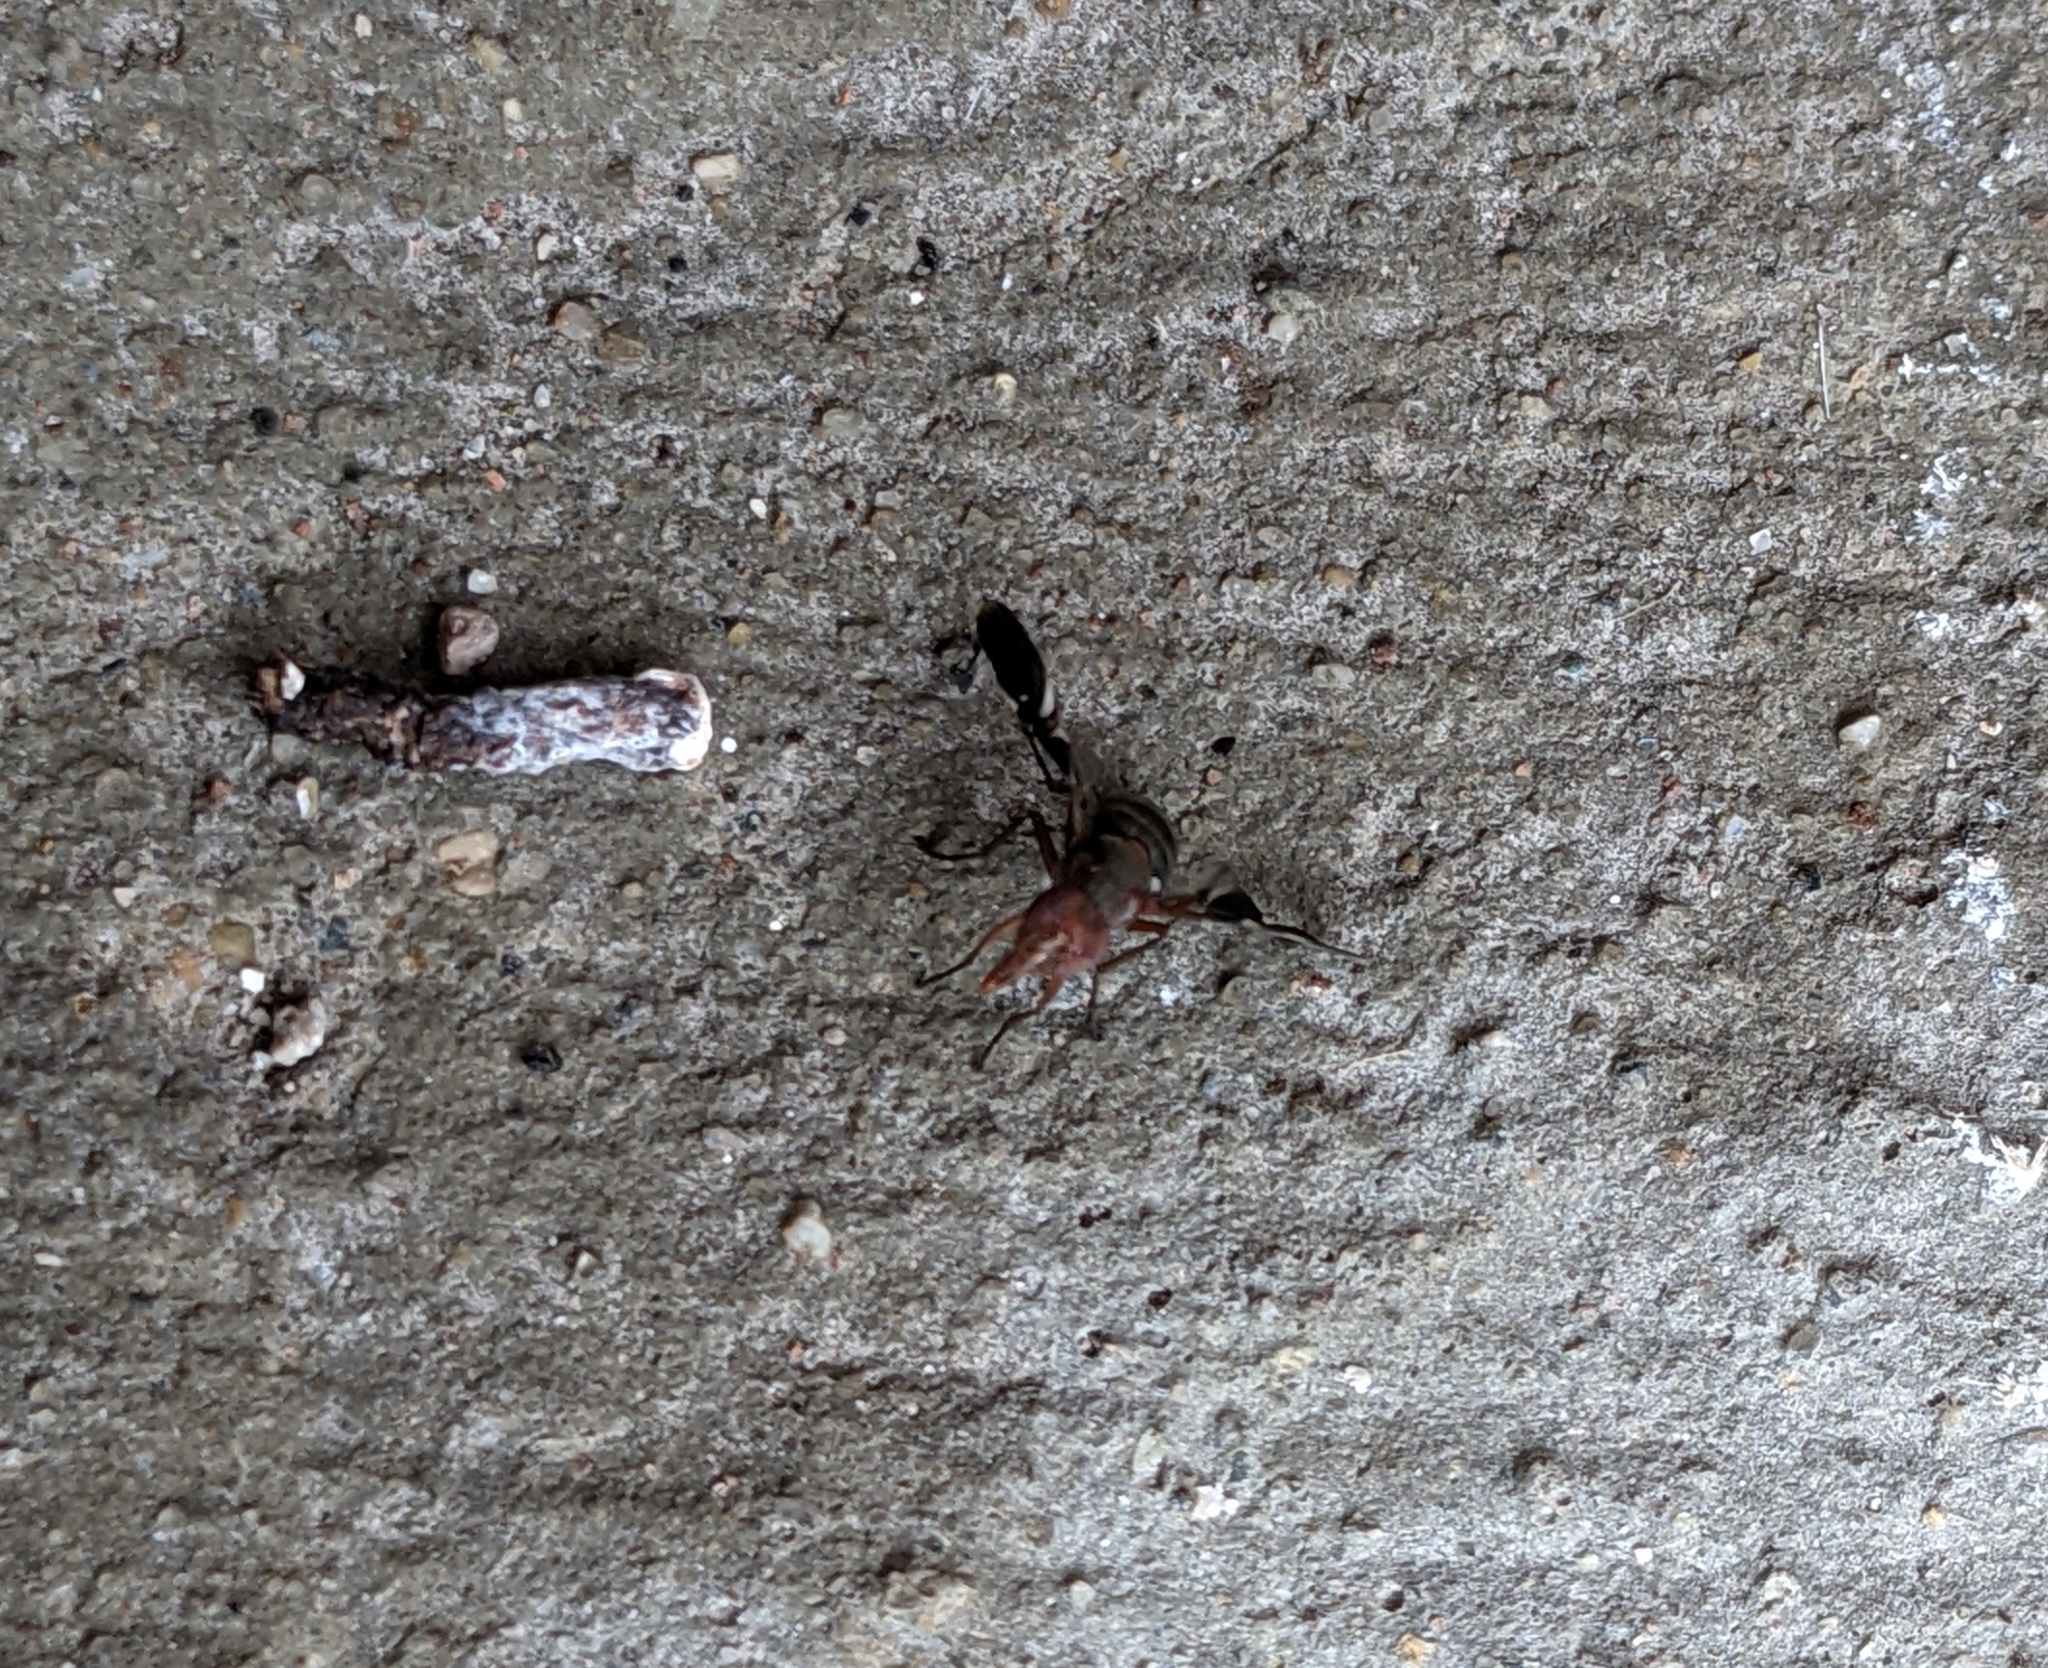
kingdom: Animalia
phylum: Arthropoda
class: Insecta
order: Diptera
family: Ulidiidae
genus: Delphinia
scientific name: Delphinia picta
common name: Common picture-winged fly
